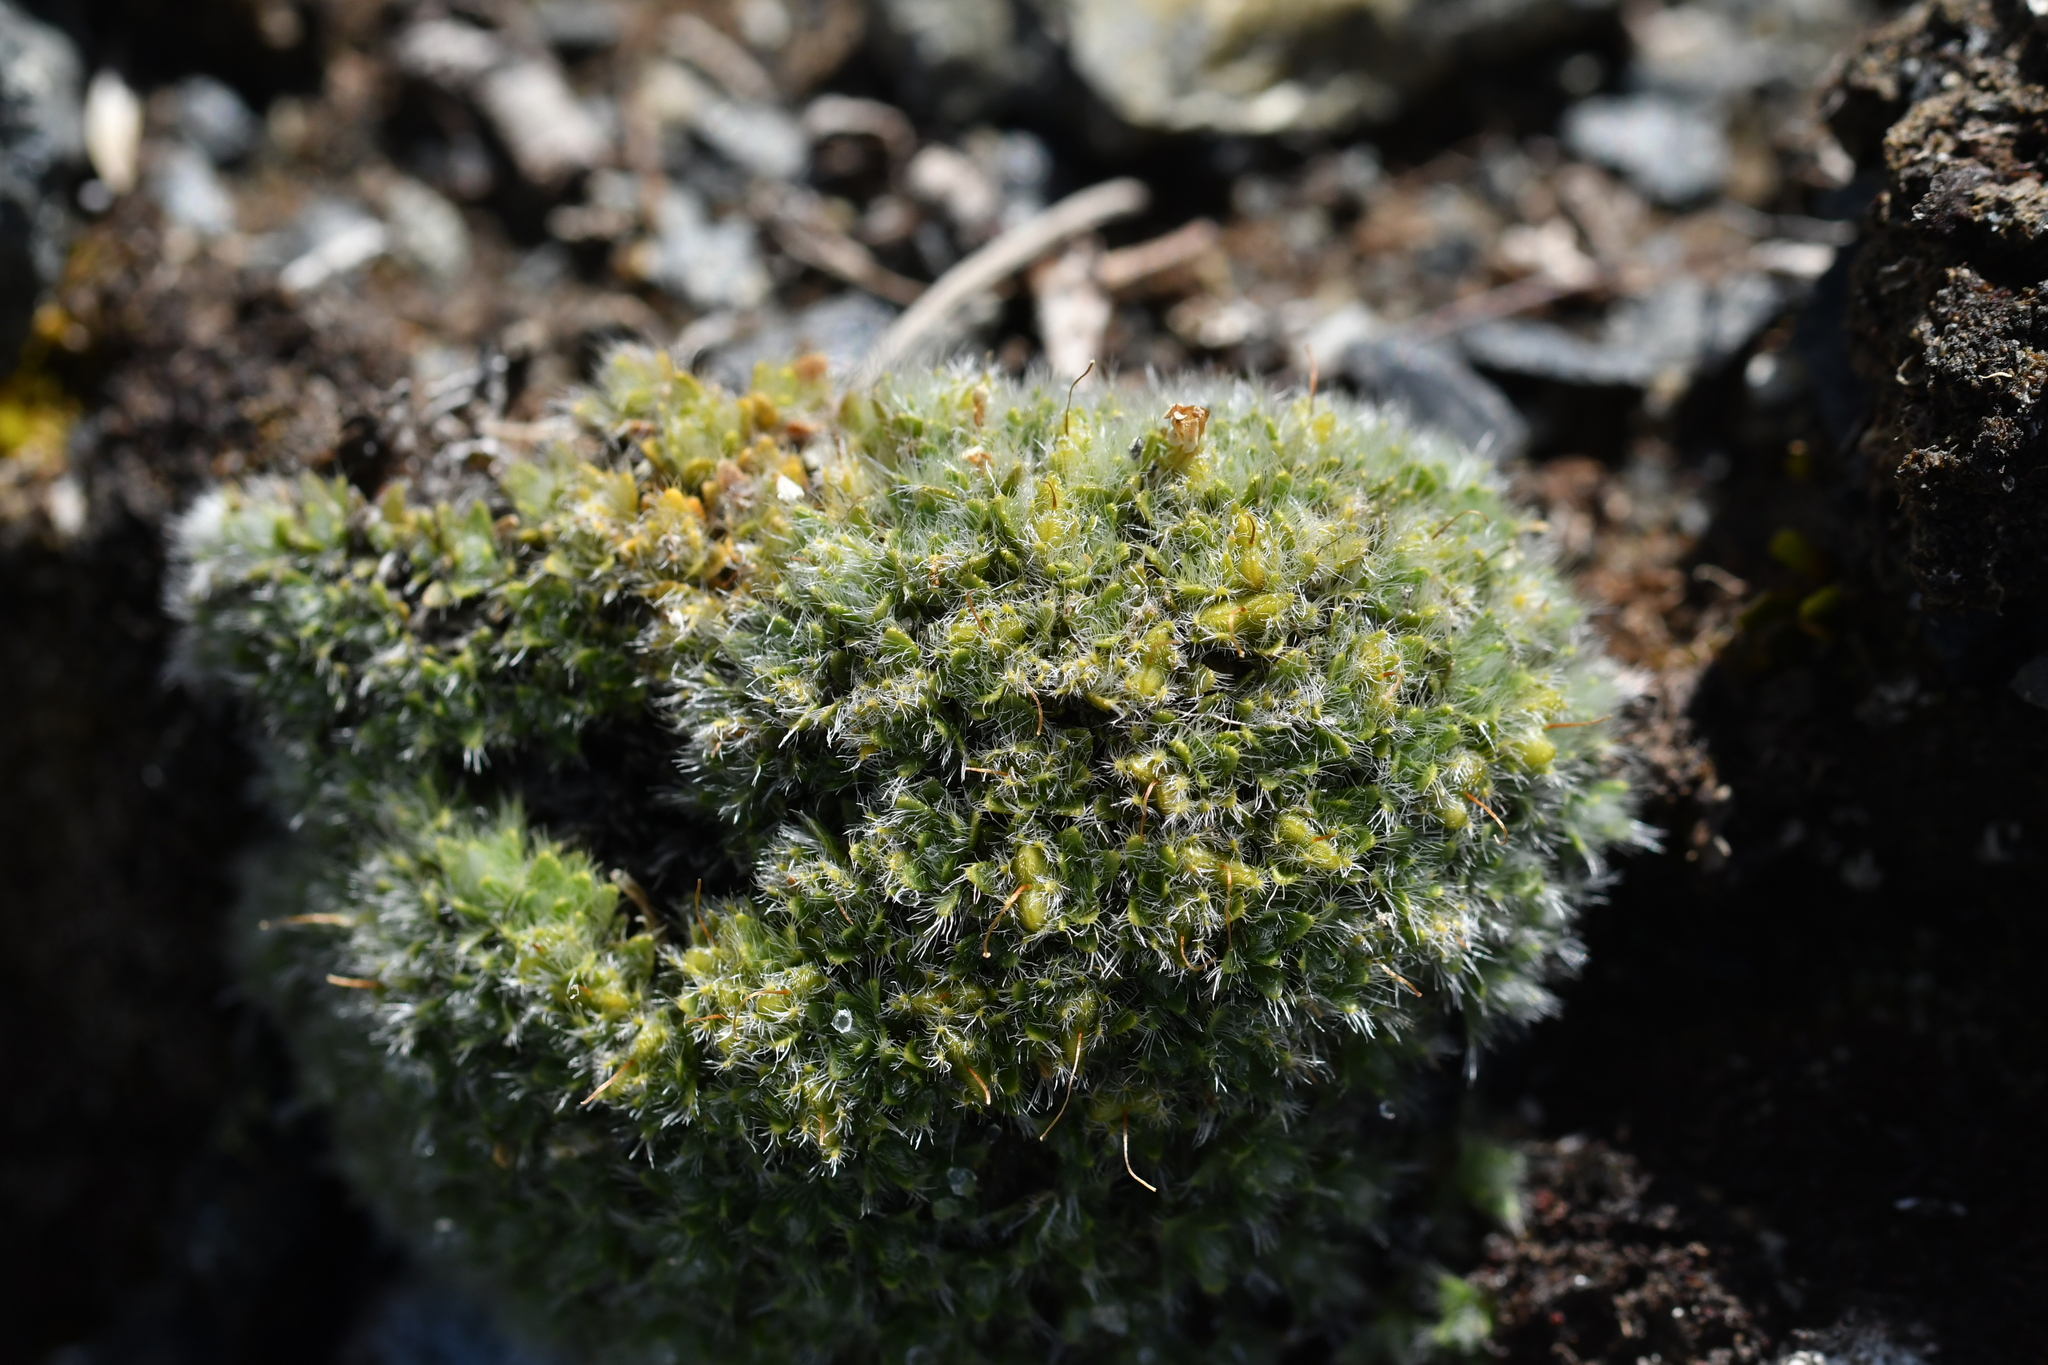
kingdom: Plantae
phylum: Tracheophyta
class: Magnoliopsida
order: Lamiales
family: Plantaginaceae
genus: Veronica
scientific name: Veronica pulvinaris
